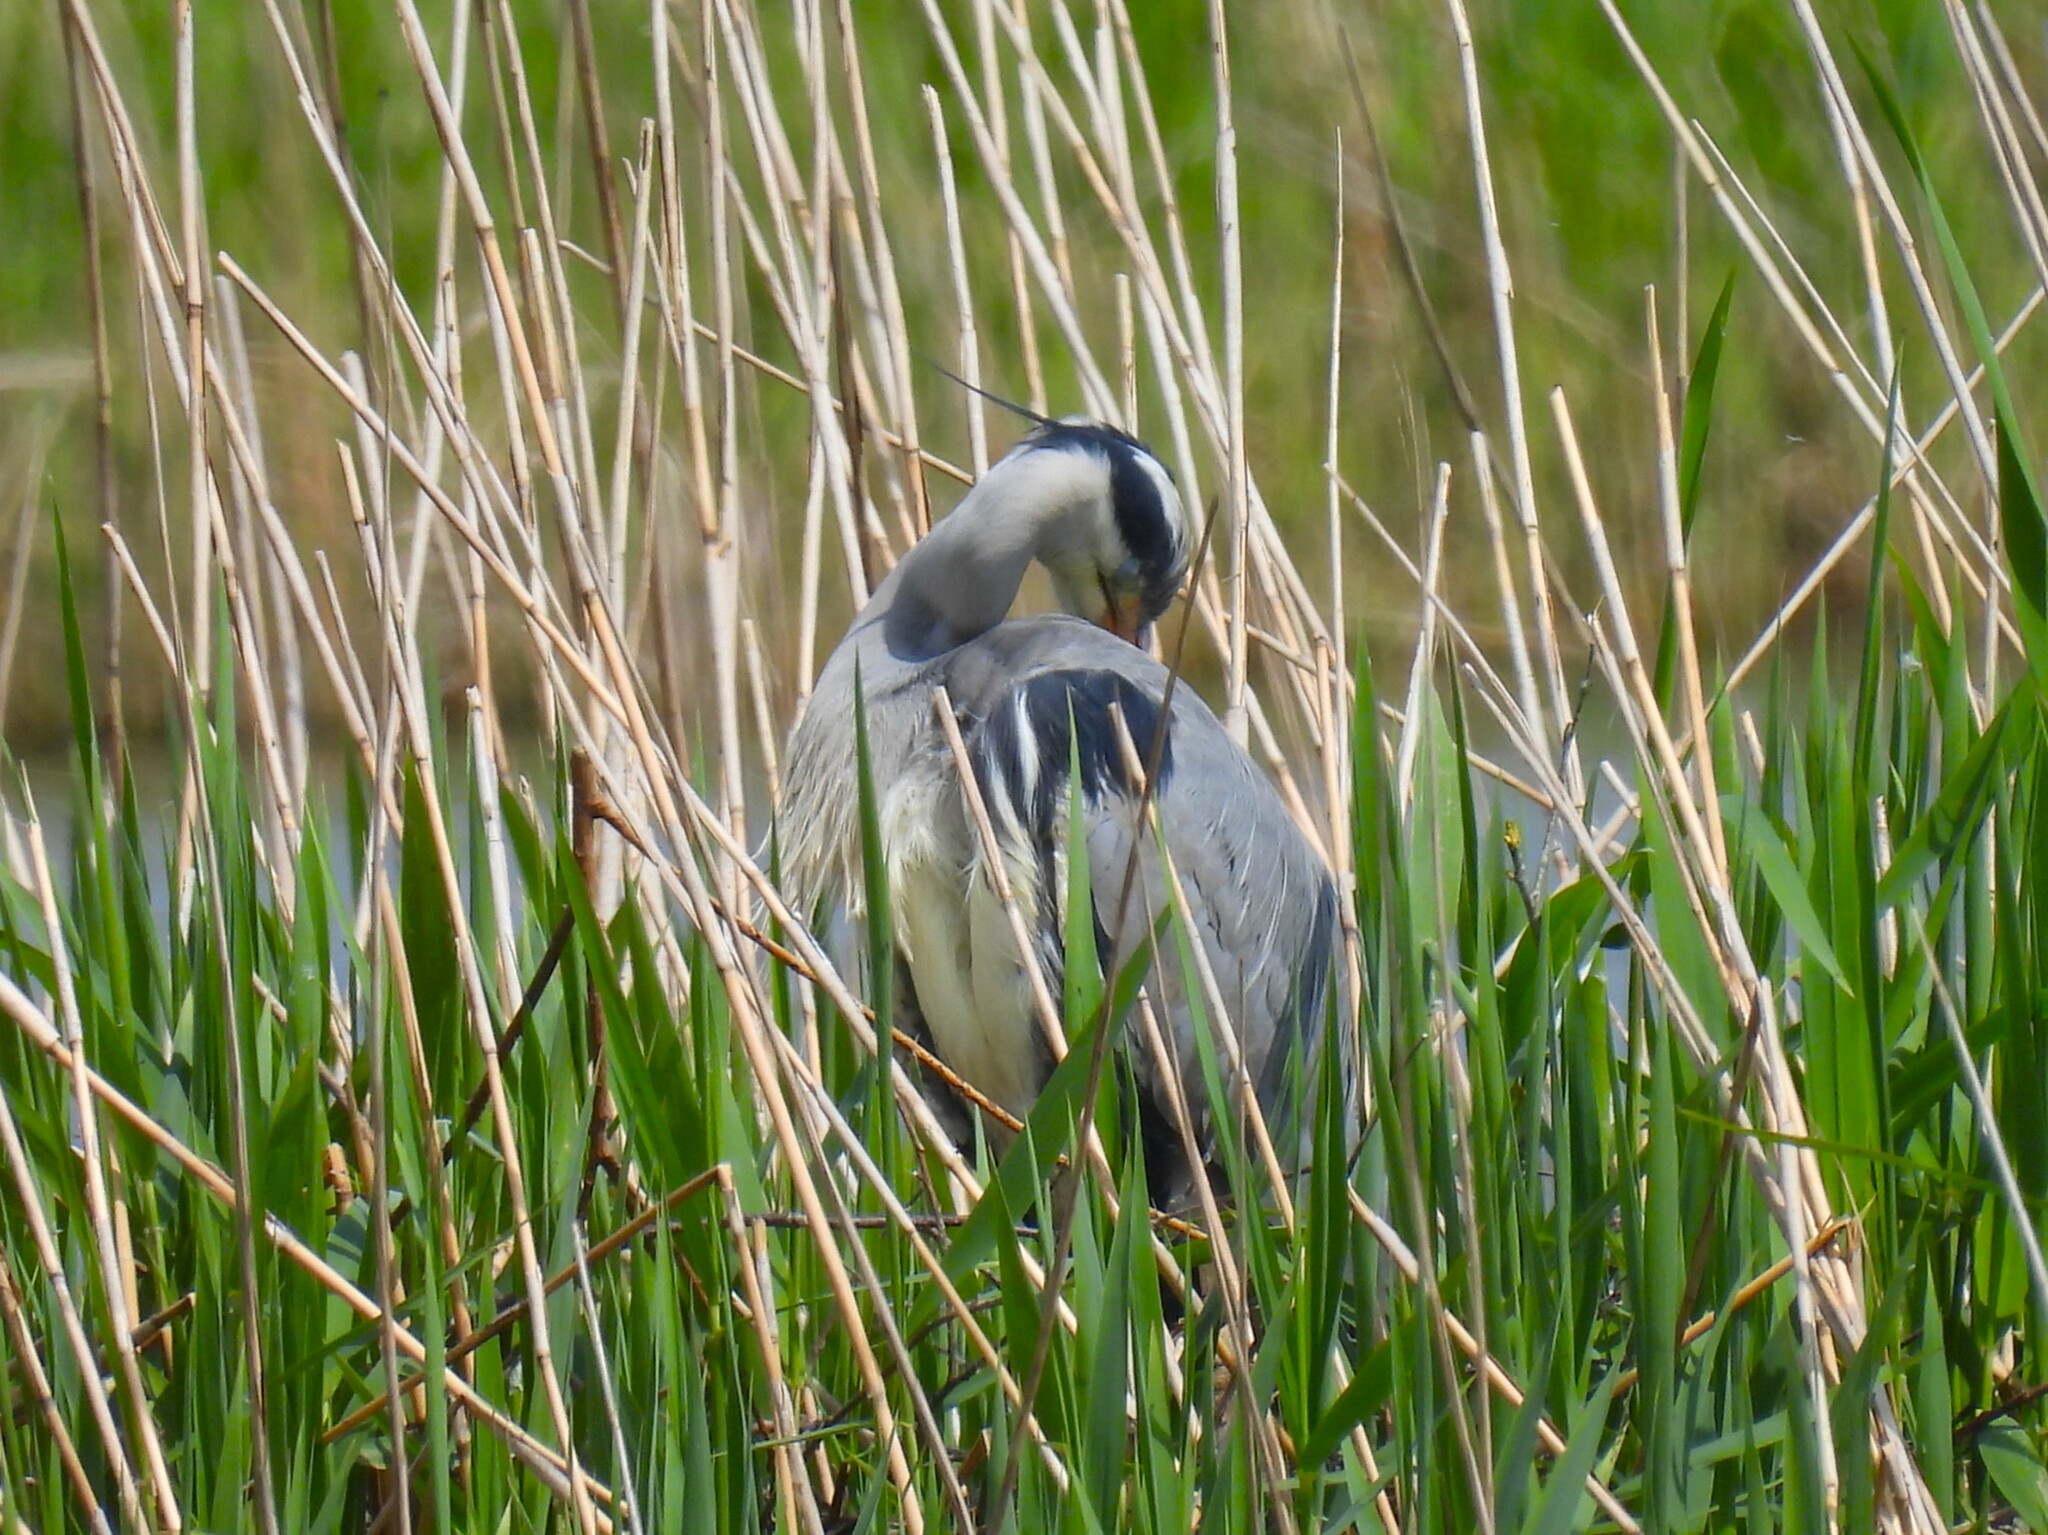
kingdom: Animalia
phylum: Chordata
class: Aves
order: Pelecaniformes
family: Ardeidae
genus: Ardea
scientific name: Ardea cinerea
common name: Grey heron
